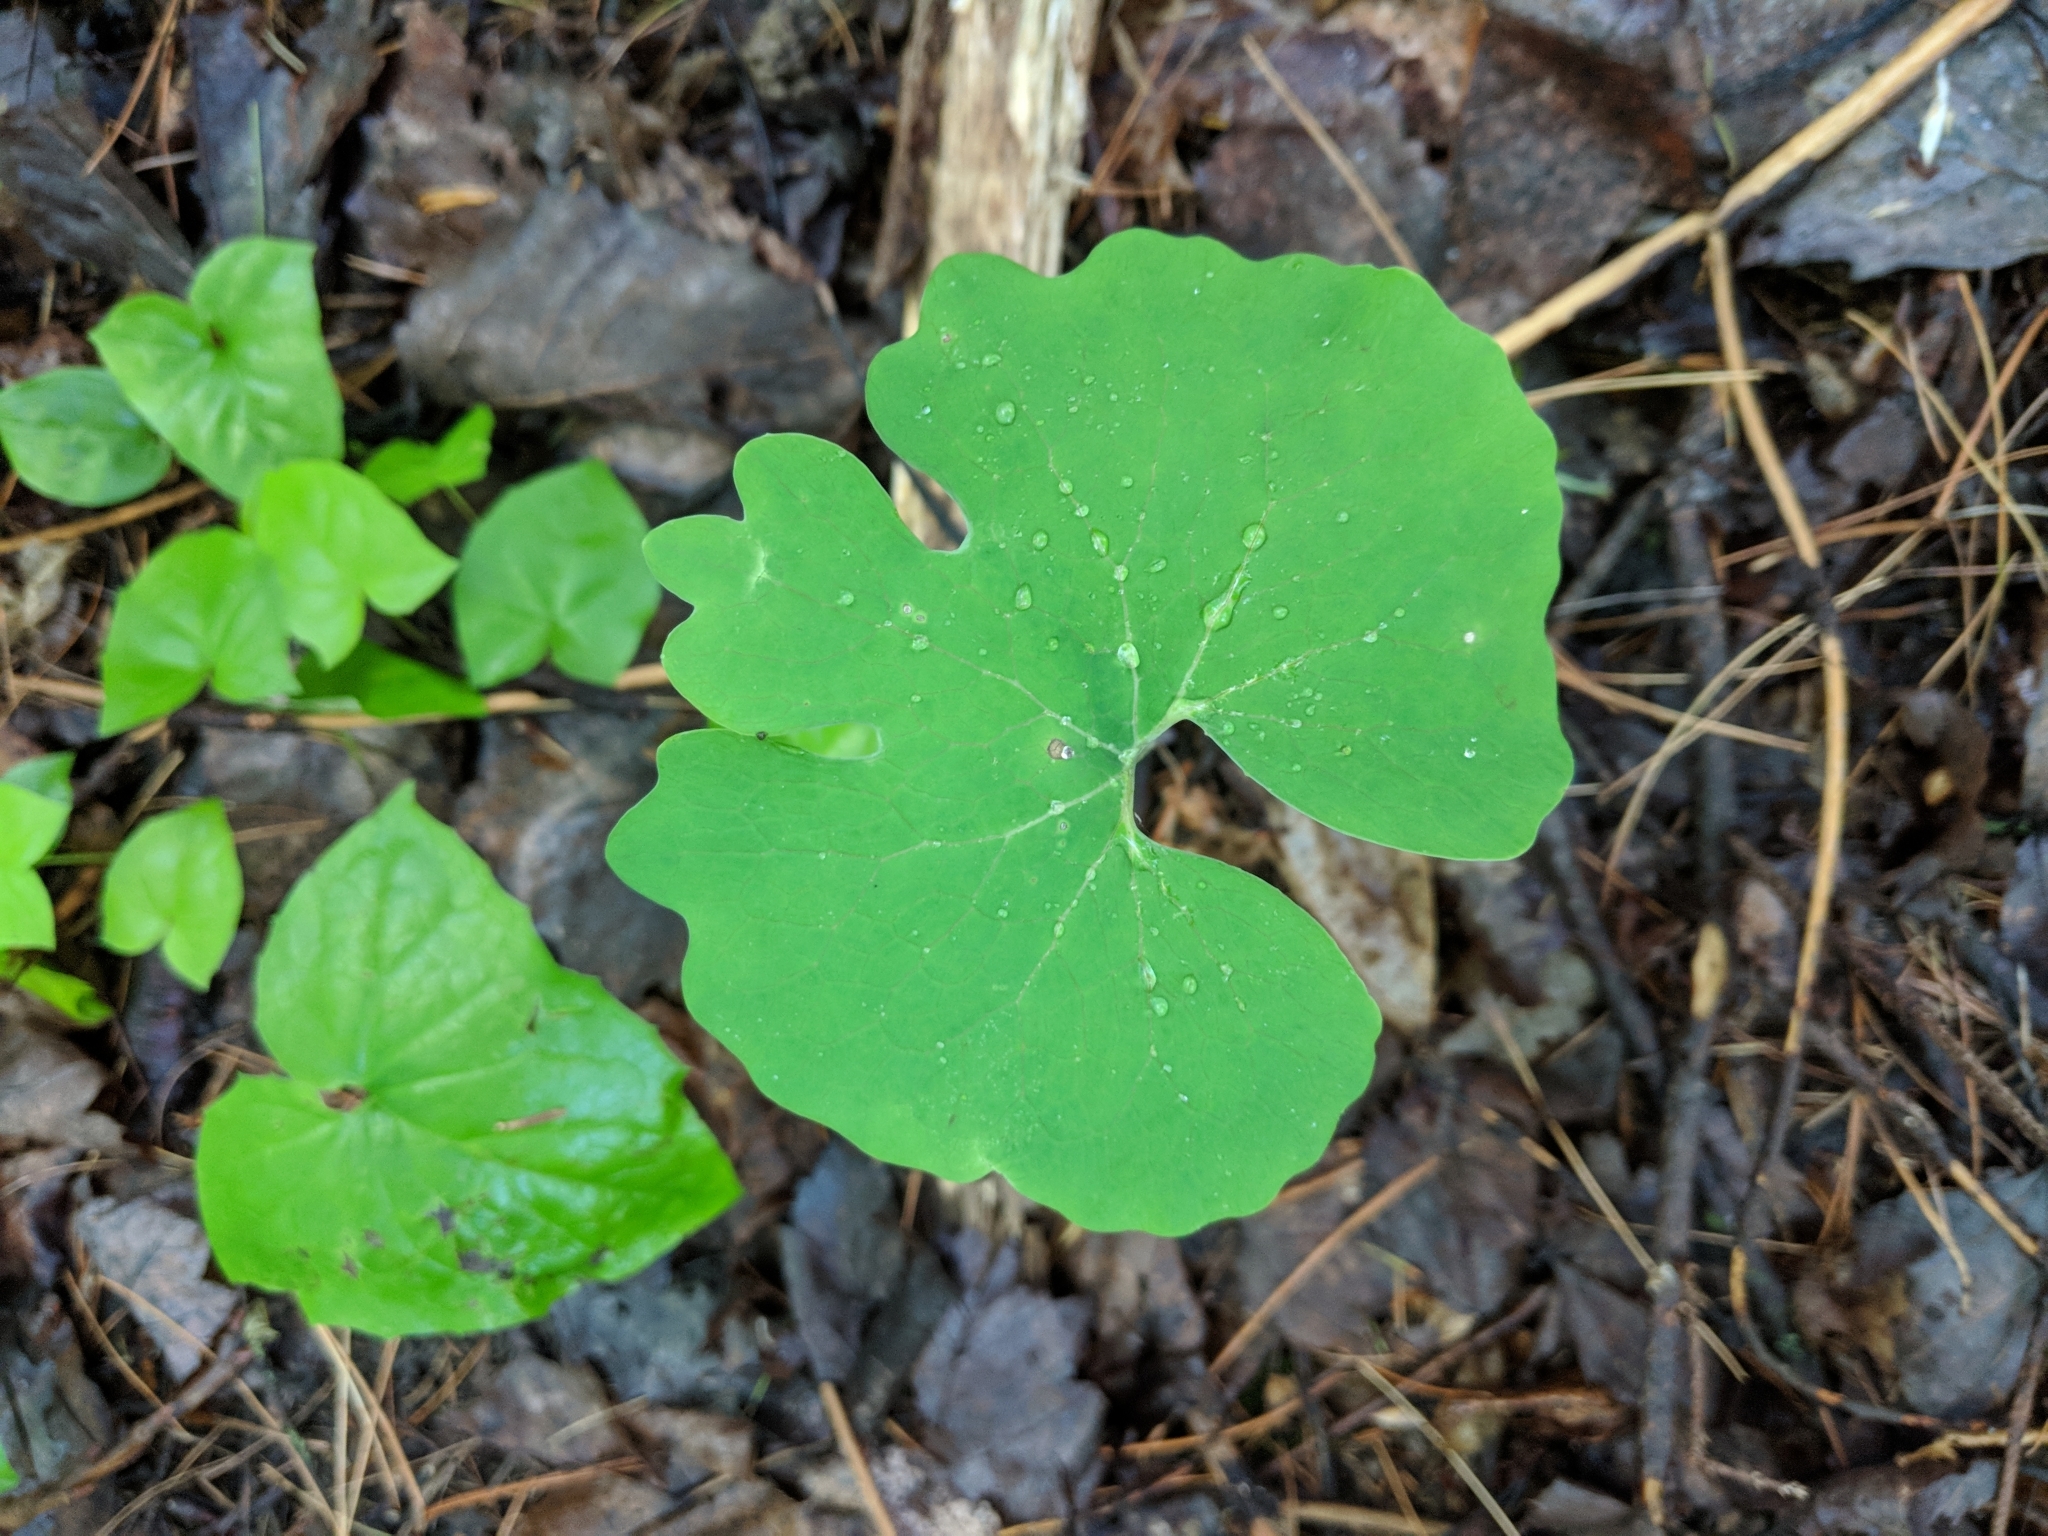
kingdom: Plantae
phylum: Tracheophyta
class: Magnoliopsida
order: Ranunculales
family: Papaveraceae
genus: Sanguinaria
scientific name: Sanguinaria canadensis
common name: Bloodroot
